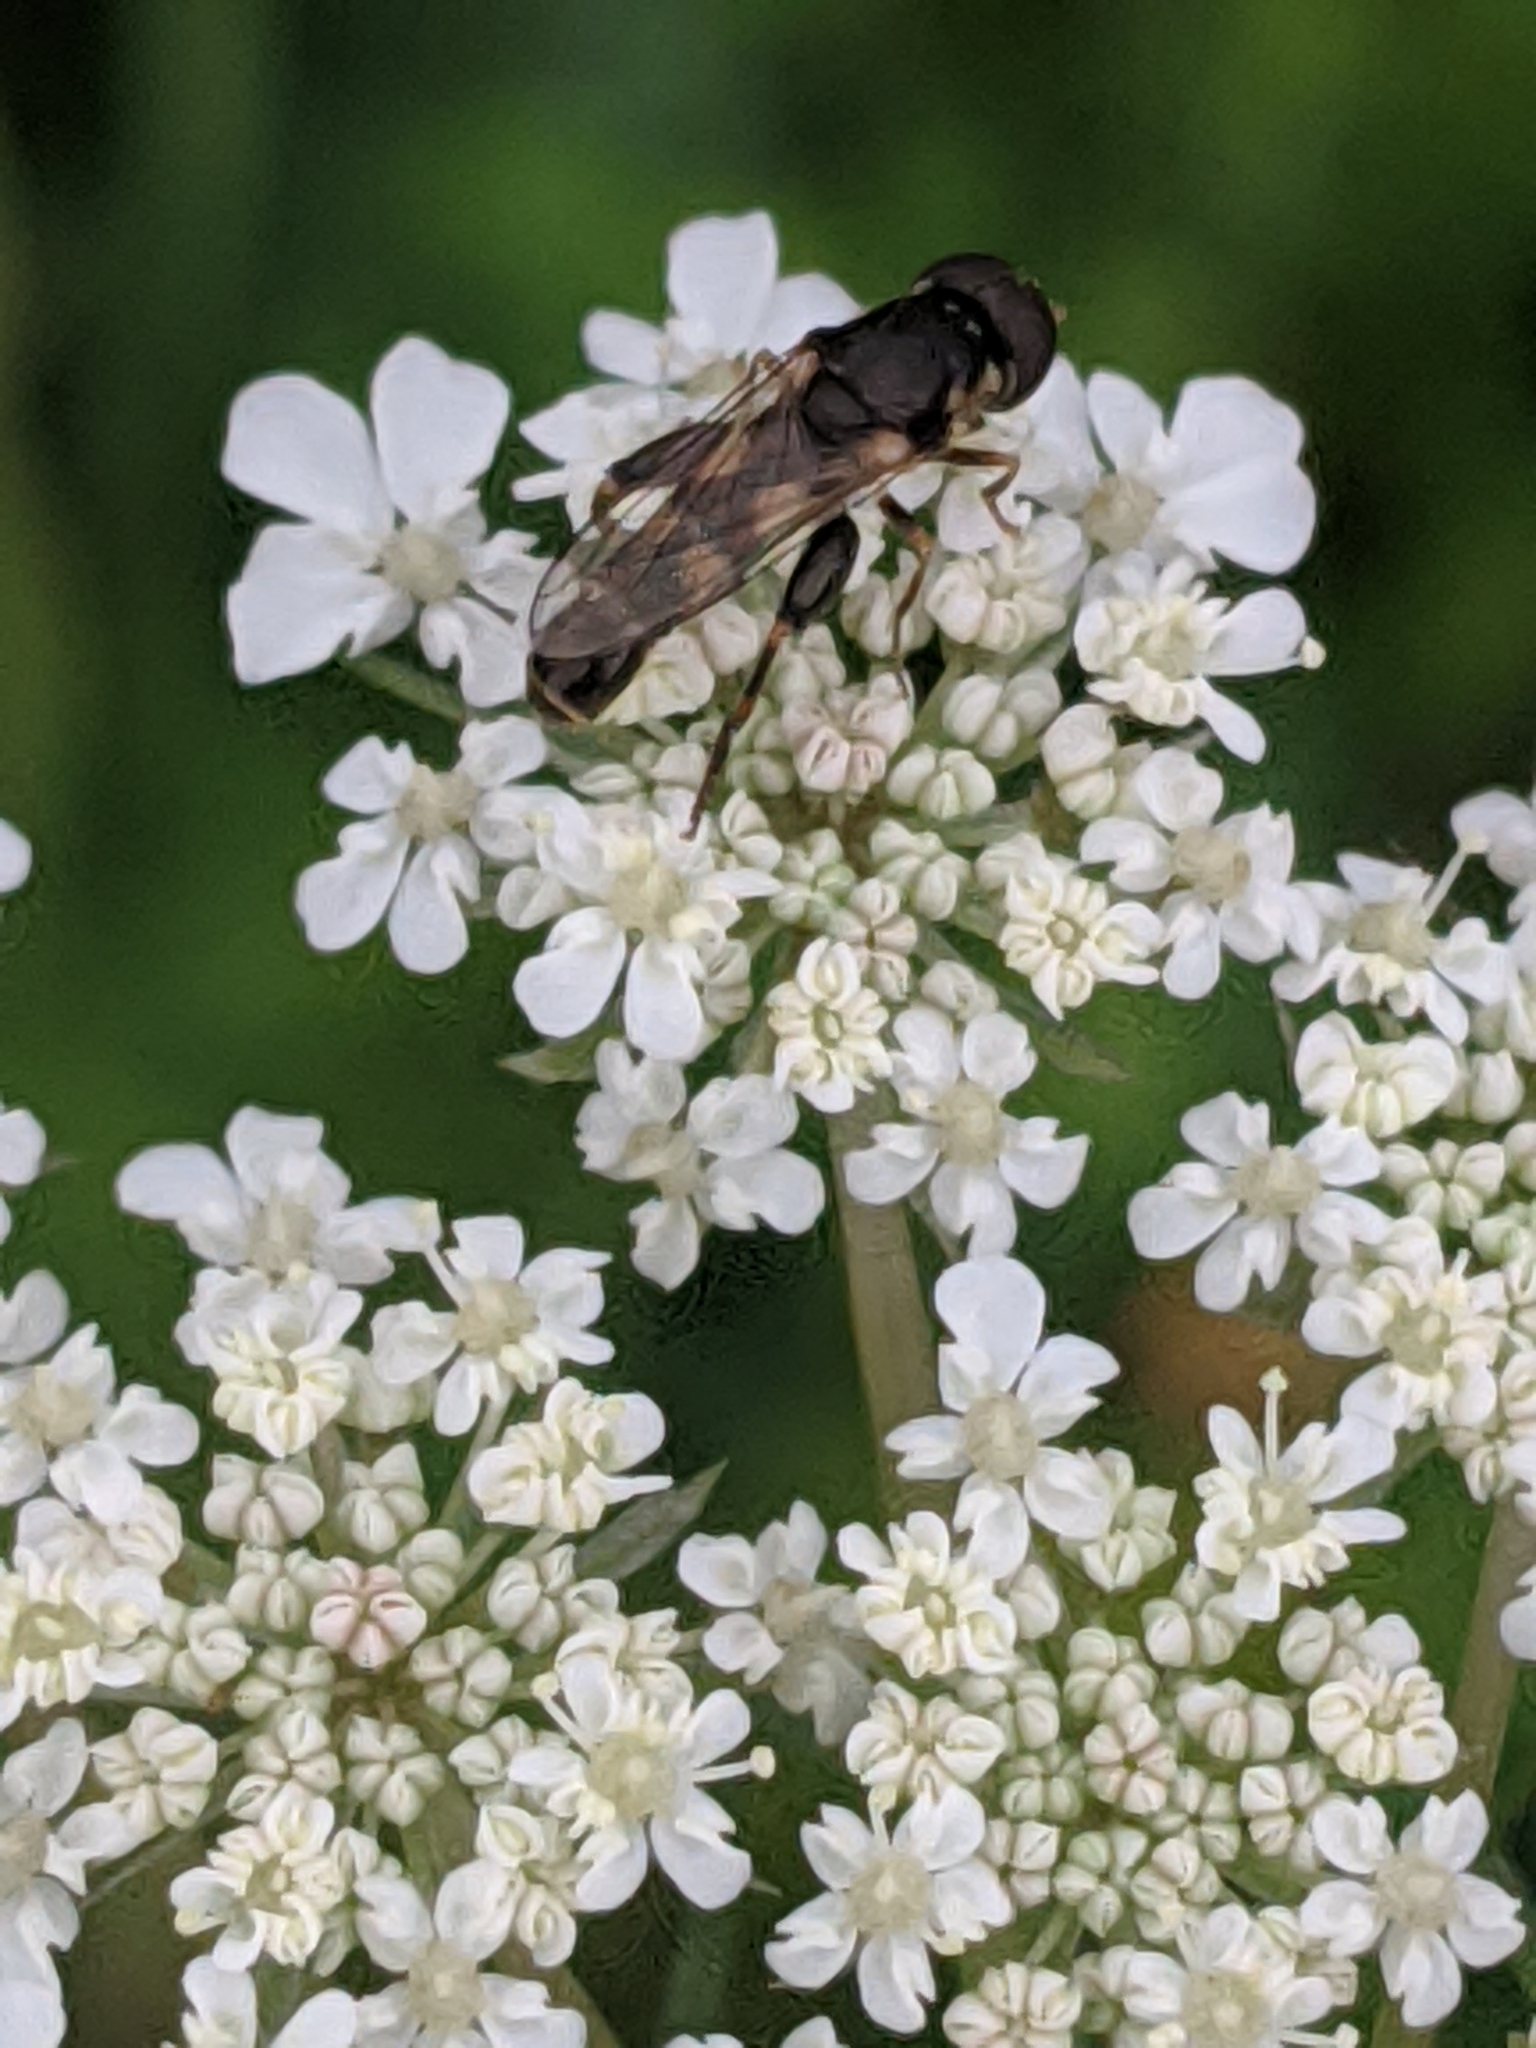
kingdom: Animalia
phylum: Arthropoda
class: Insecta
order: Diptera
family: Syrphidae
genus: Syritta
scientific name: Syritta pipiens
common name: Hover fly
